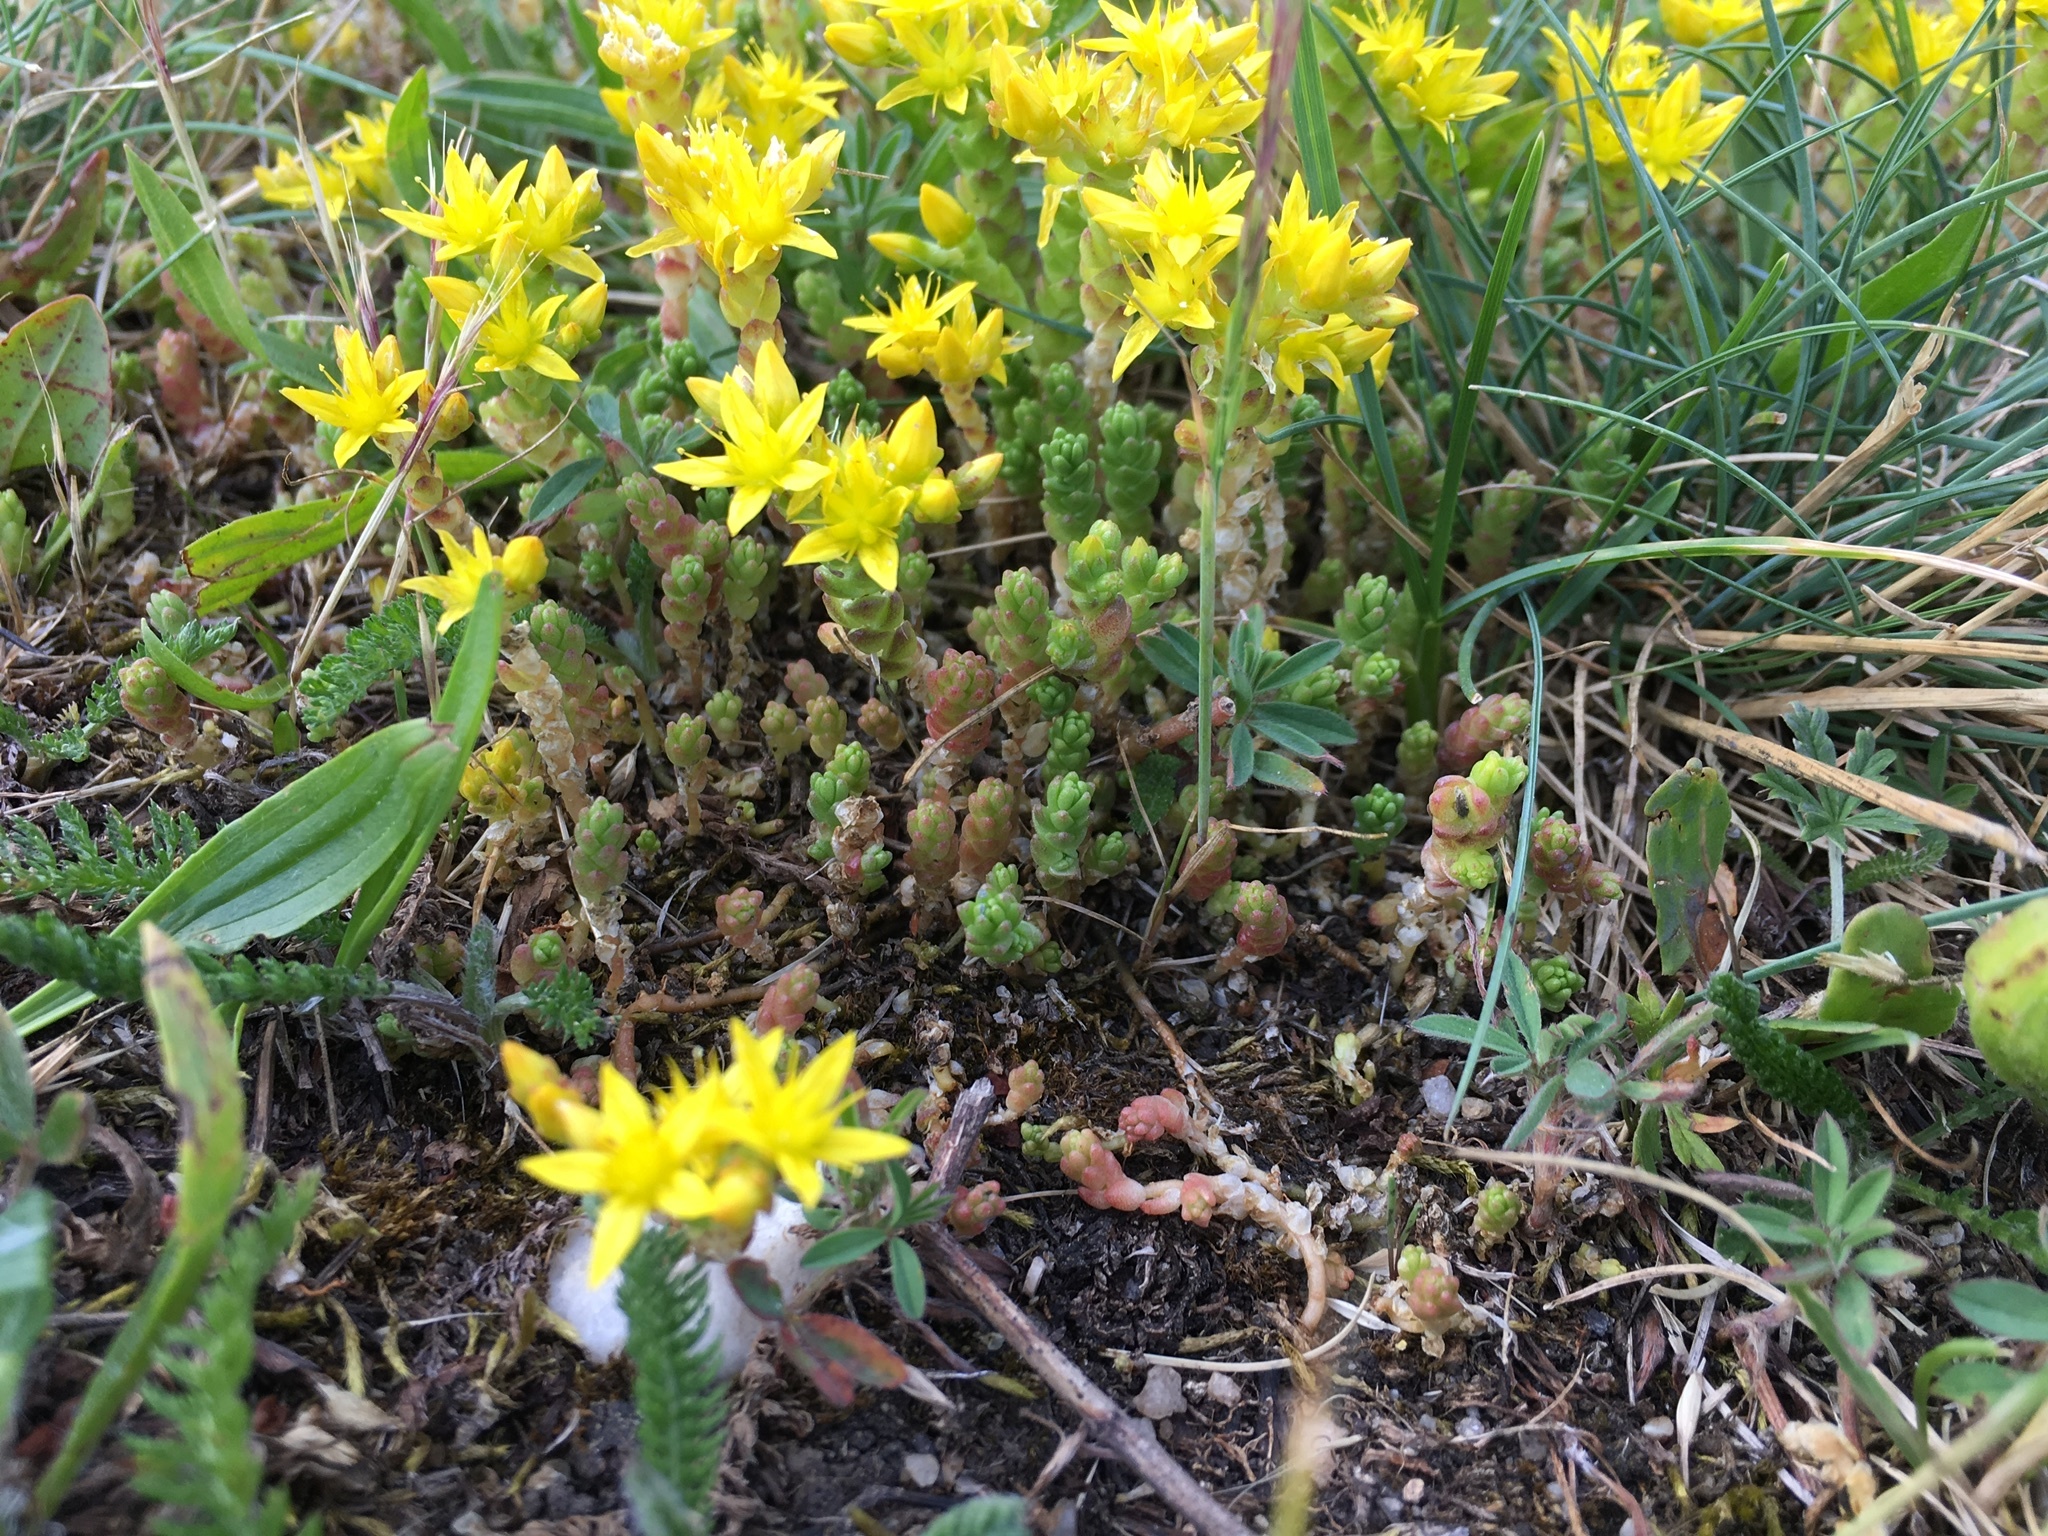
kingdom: Plantae
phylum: Tracheophyta
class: Magnoliopsida
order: Saxifragales
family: Crassulaceae
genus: Sedum
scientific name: Sedum acre
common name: Biting stonecrop
